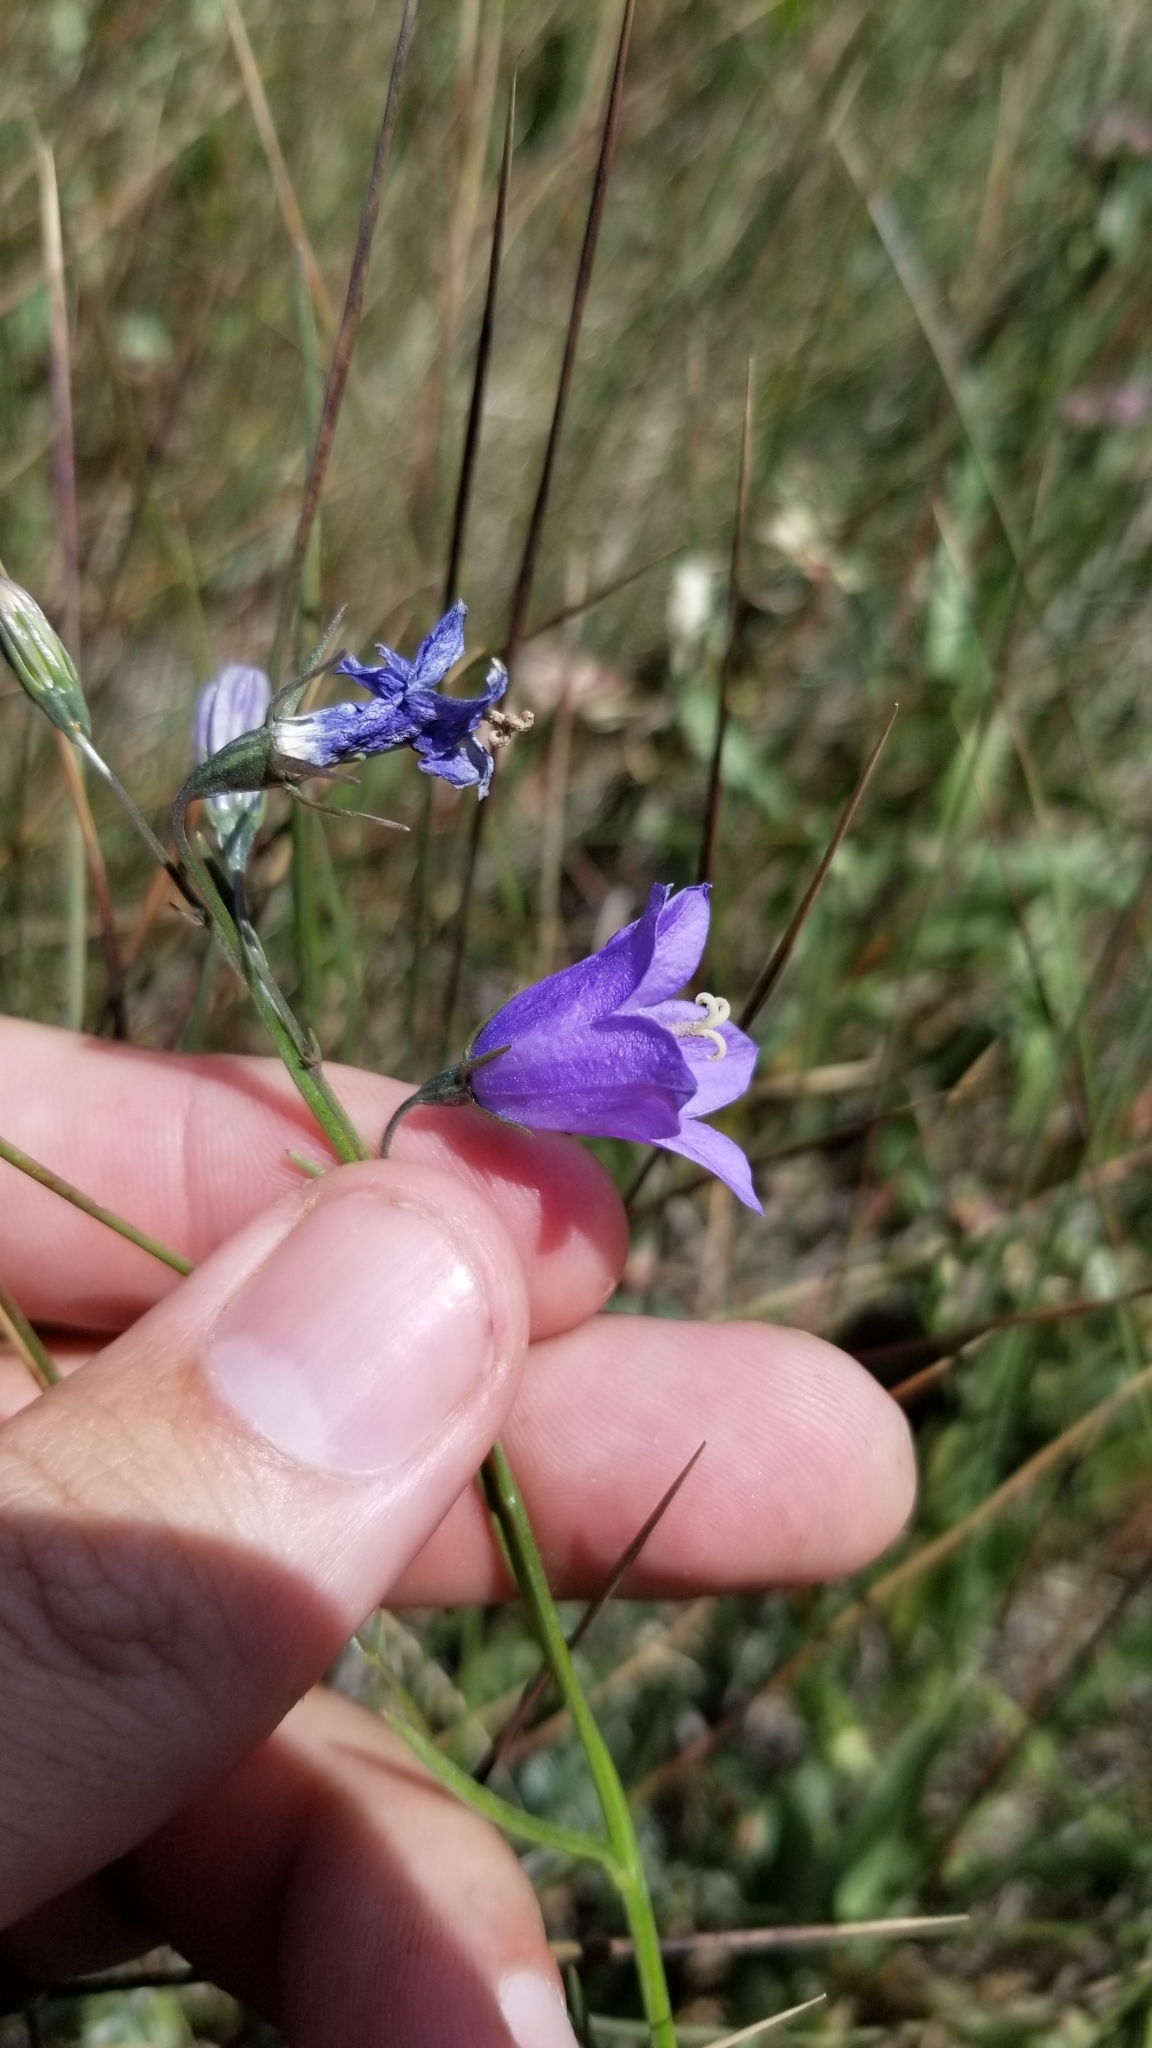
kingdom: Plantae
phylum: Tracheophyta
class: Magnoliopsida
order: Asterales
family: Campanulaceae
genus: Campanula
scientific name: Campanula petiolata
